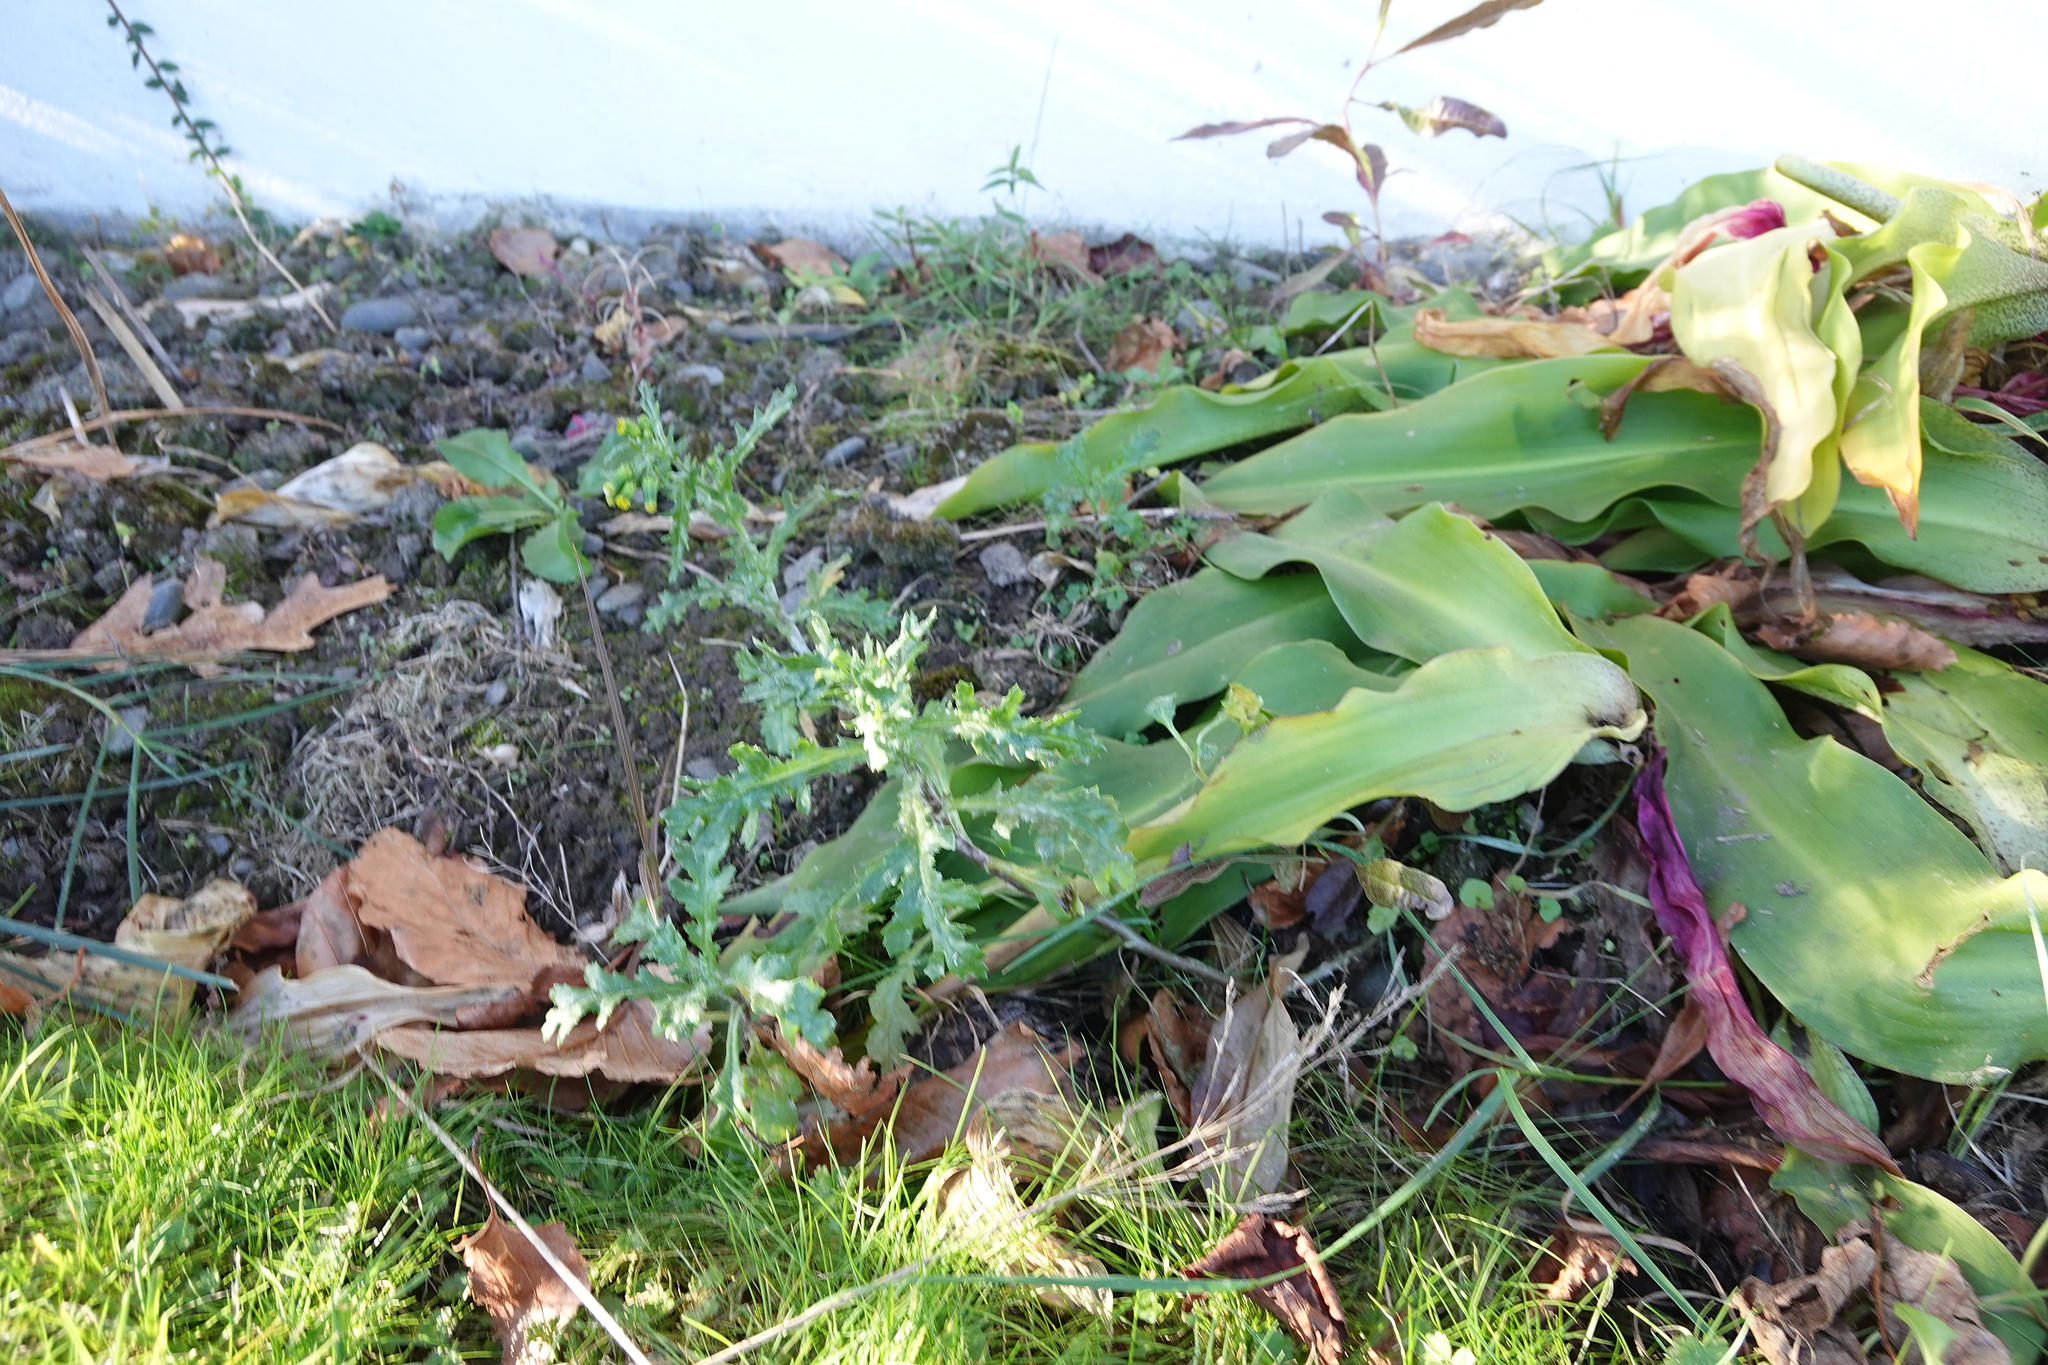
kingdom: Plantae
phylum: Tracheophyta
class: Magnoliopsida
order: Asterales
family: Asteraceae
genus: Senecio
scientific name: Senecio vulgaris
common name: Old-man-in-the-spring
